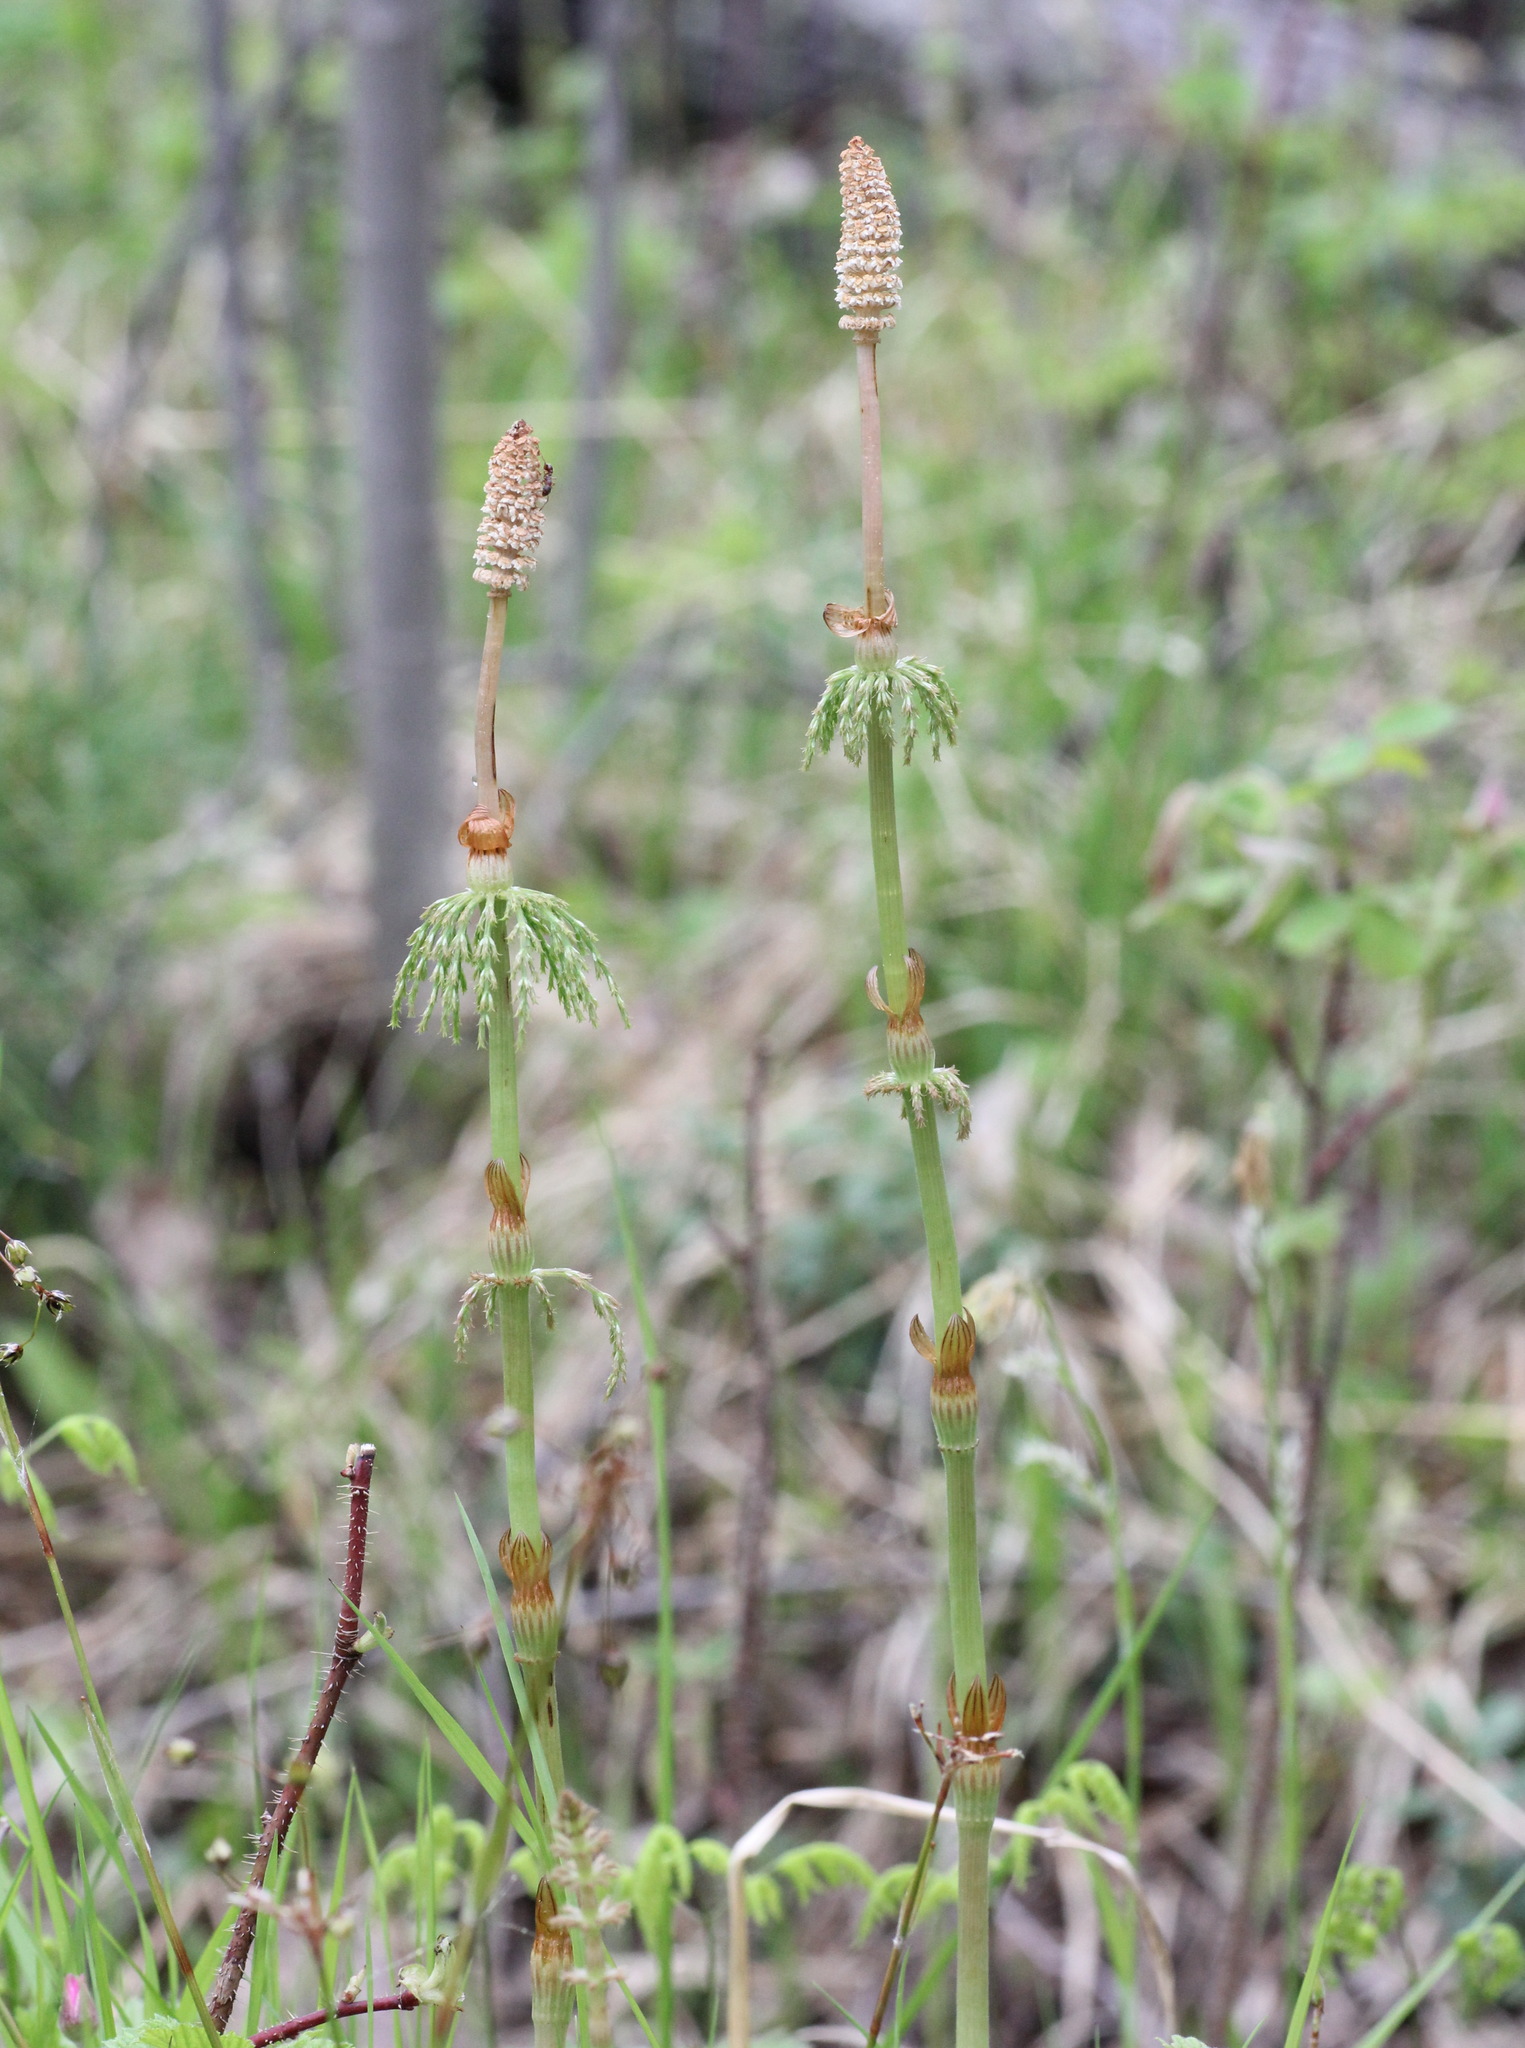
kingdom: Plantae
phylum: Tracheophyta
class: Polypodiopsida
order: Equisetales
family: Equisetaceae
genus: Equisetum
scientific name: Equisetum sylvaticum
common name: Wood horsetail
